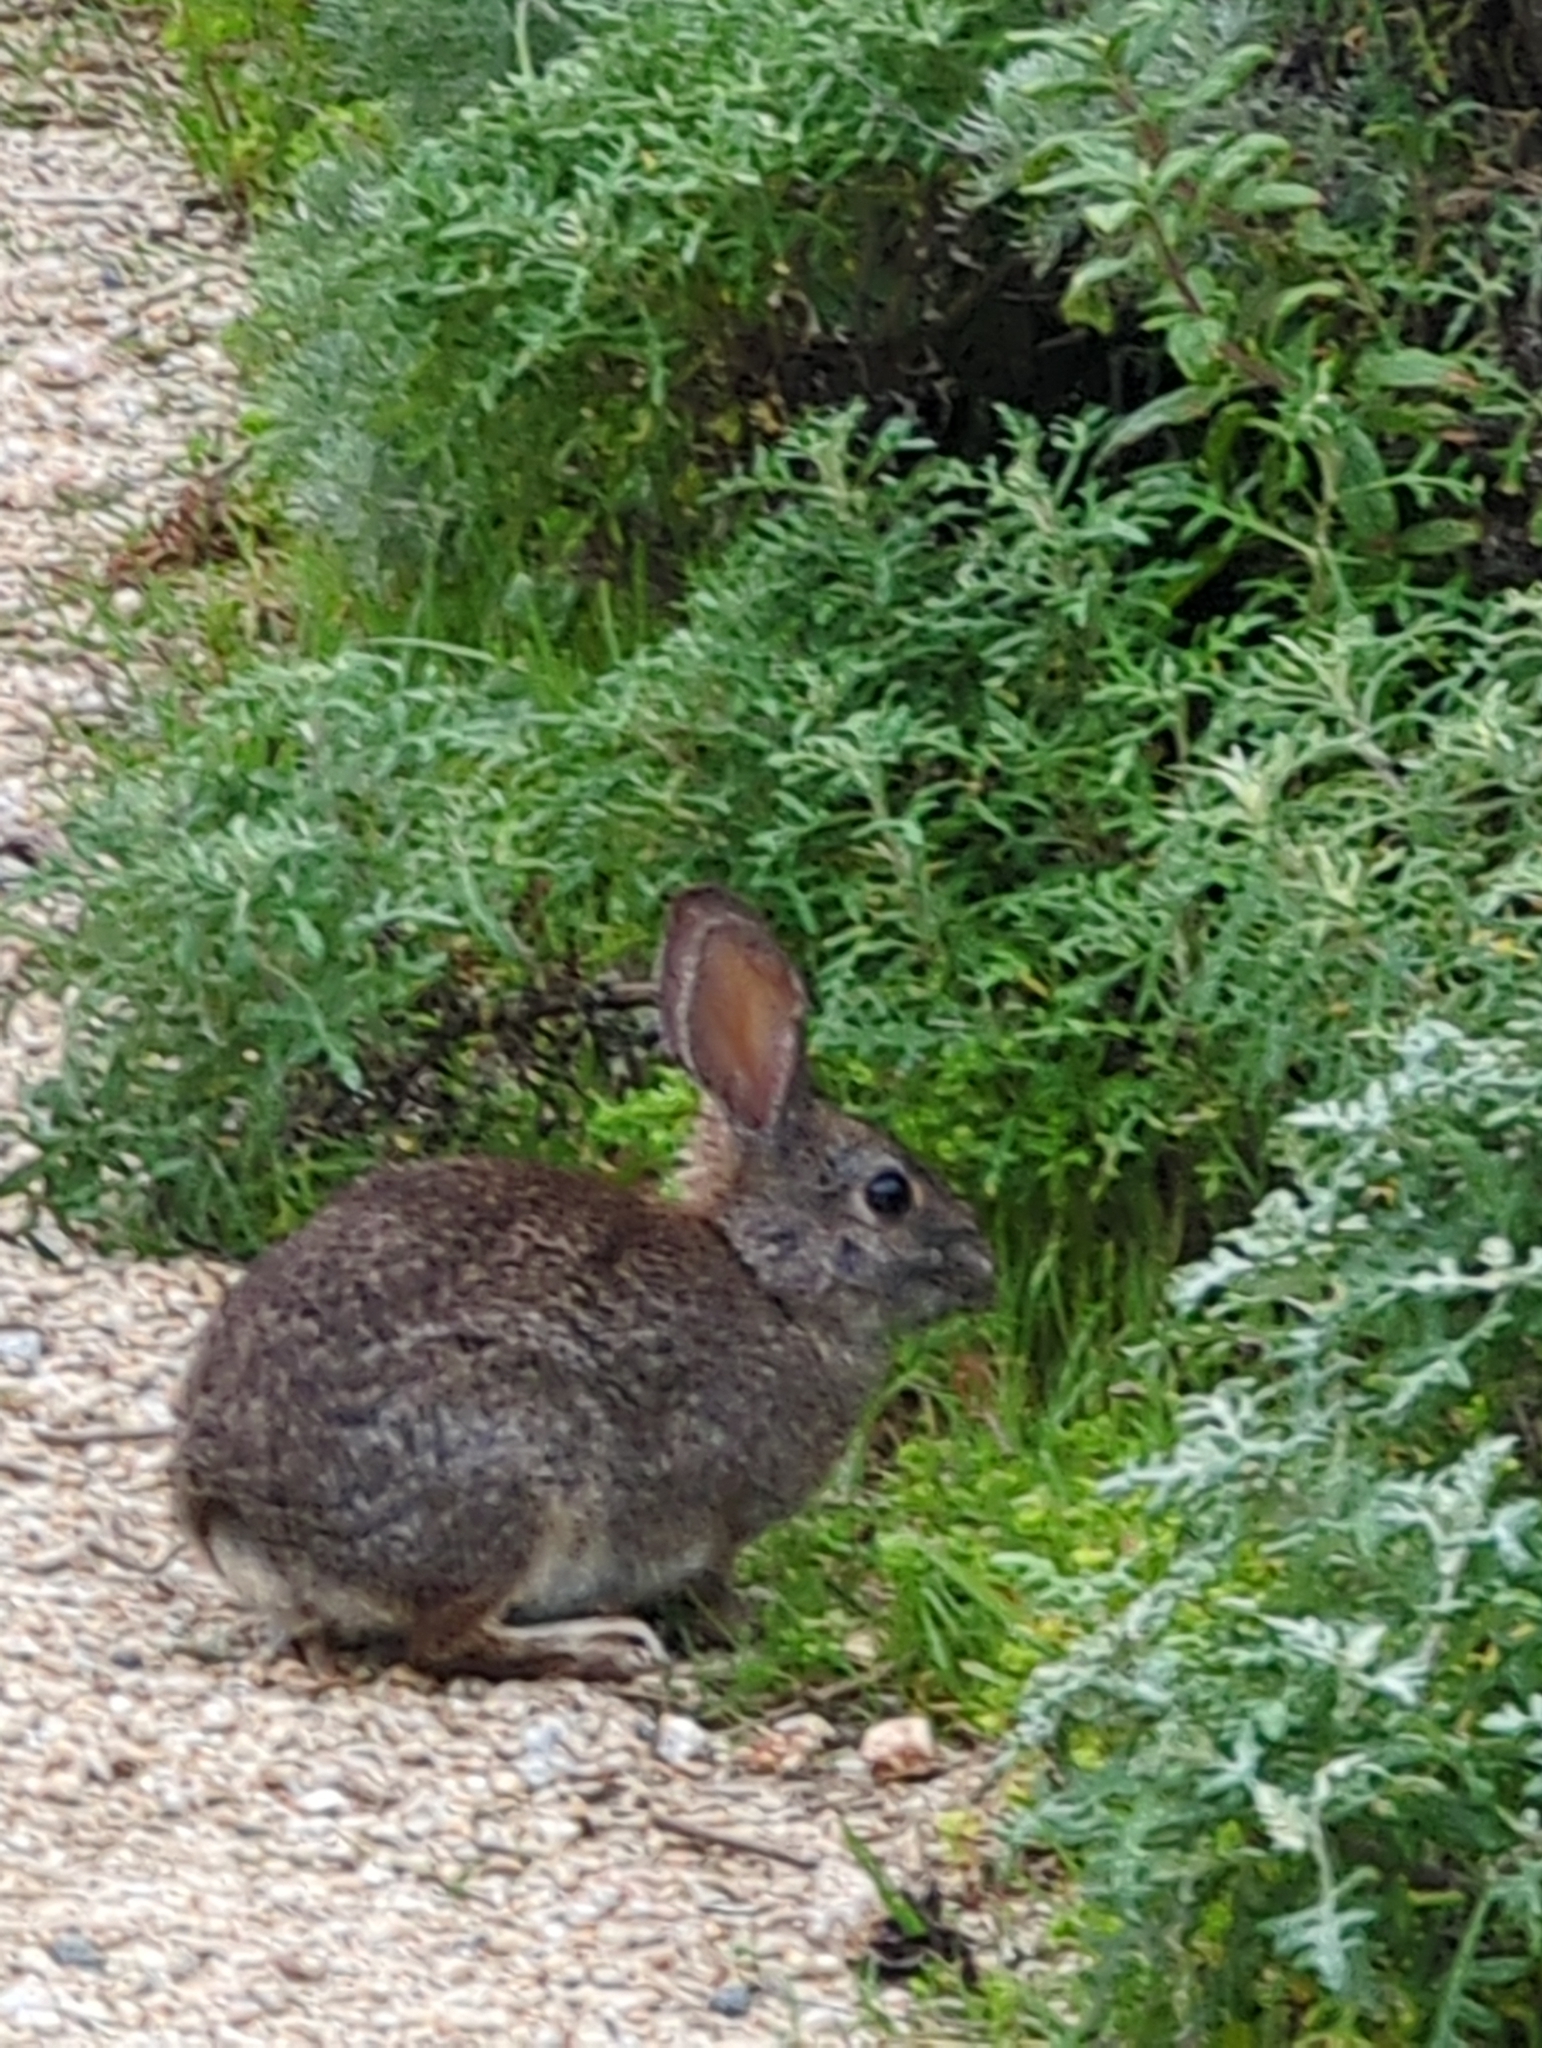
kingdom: Animalia
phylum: Chordata
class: Mammalia
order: Lagomorpha
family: Leporidae
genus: Sylvilagus
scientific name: Sylvilagus bachmani
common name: Brush rabbit
